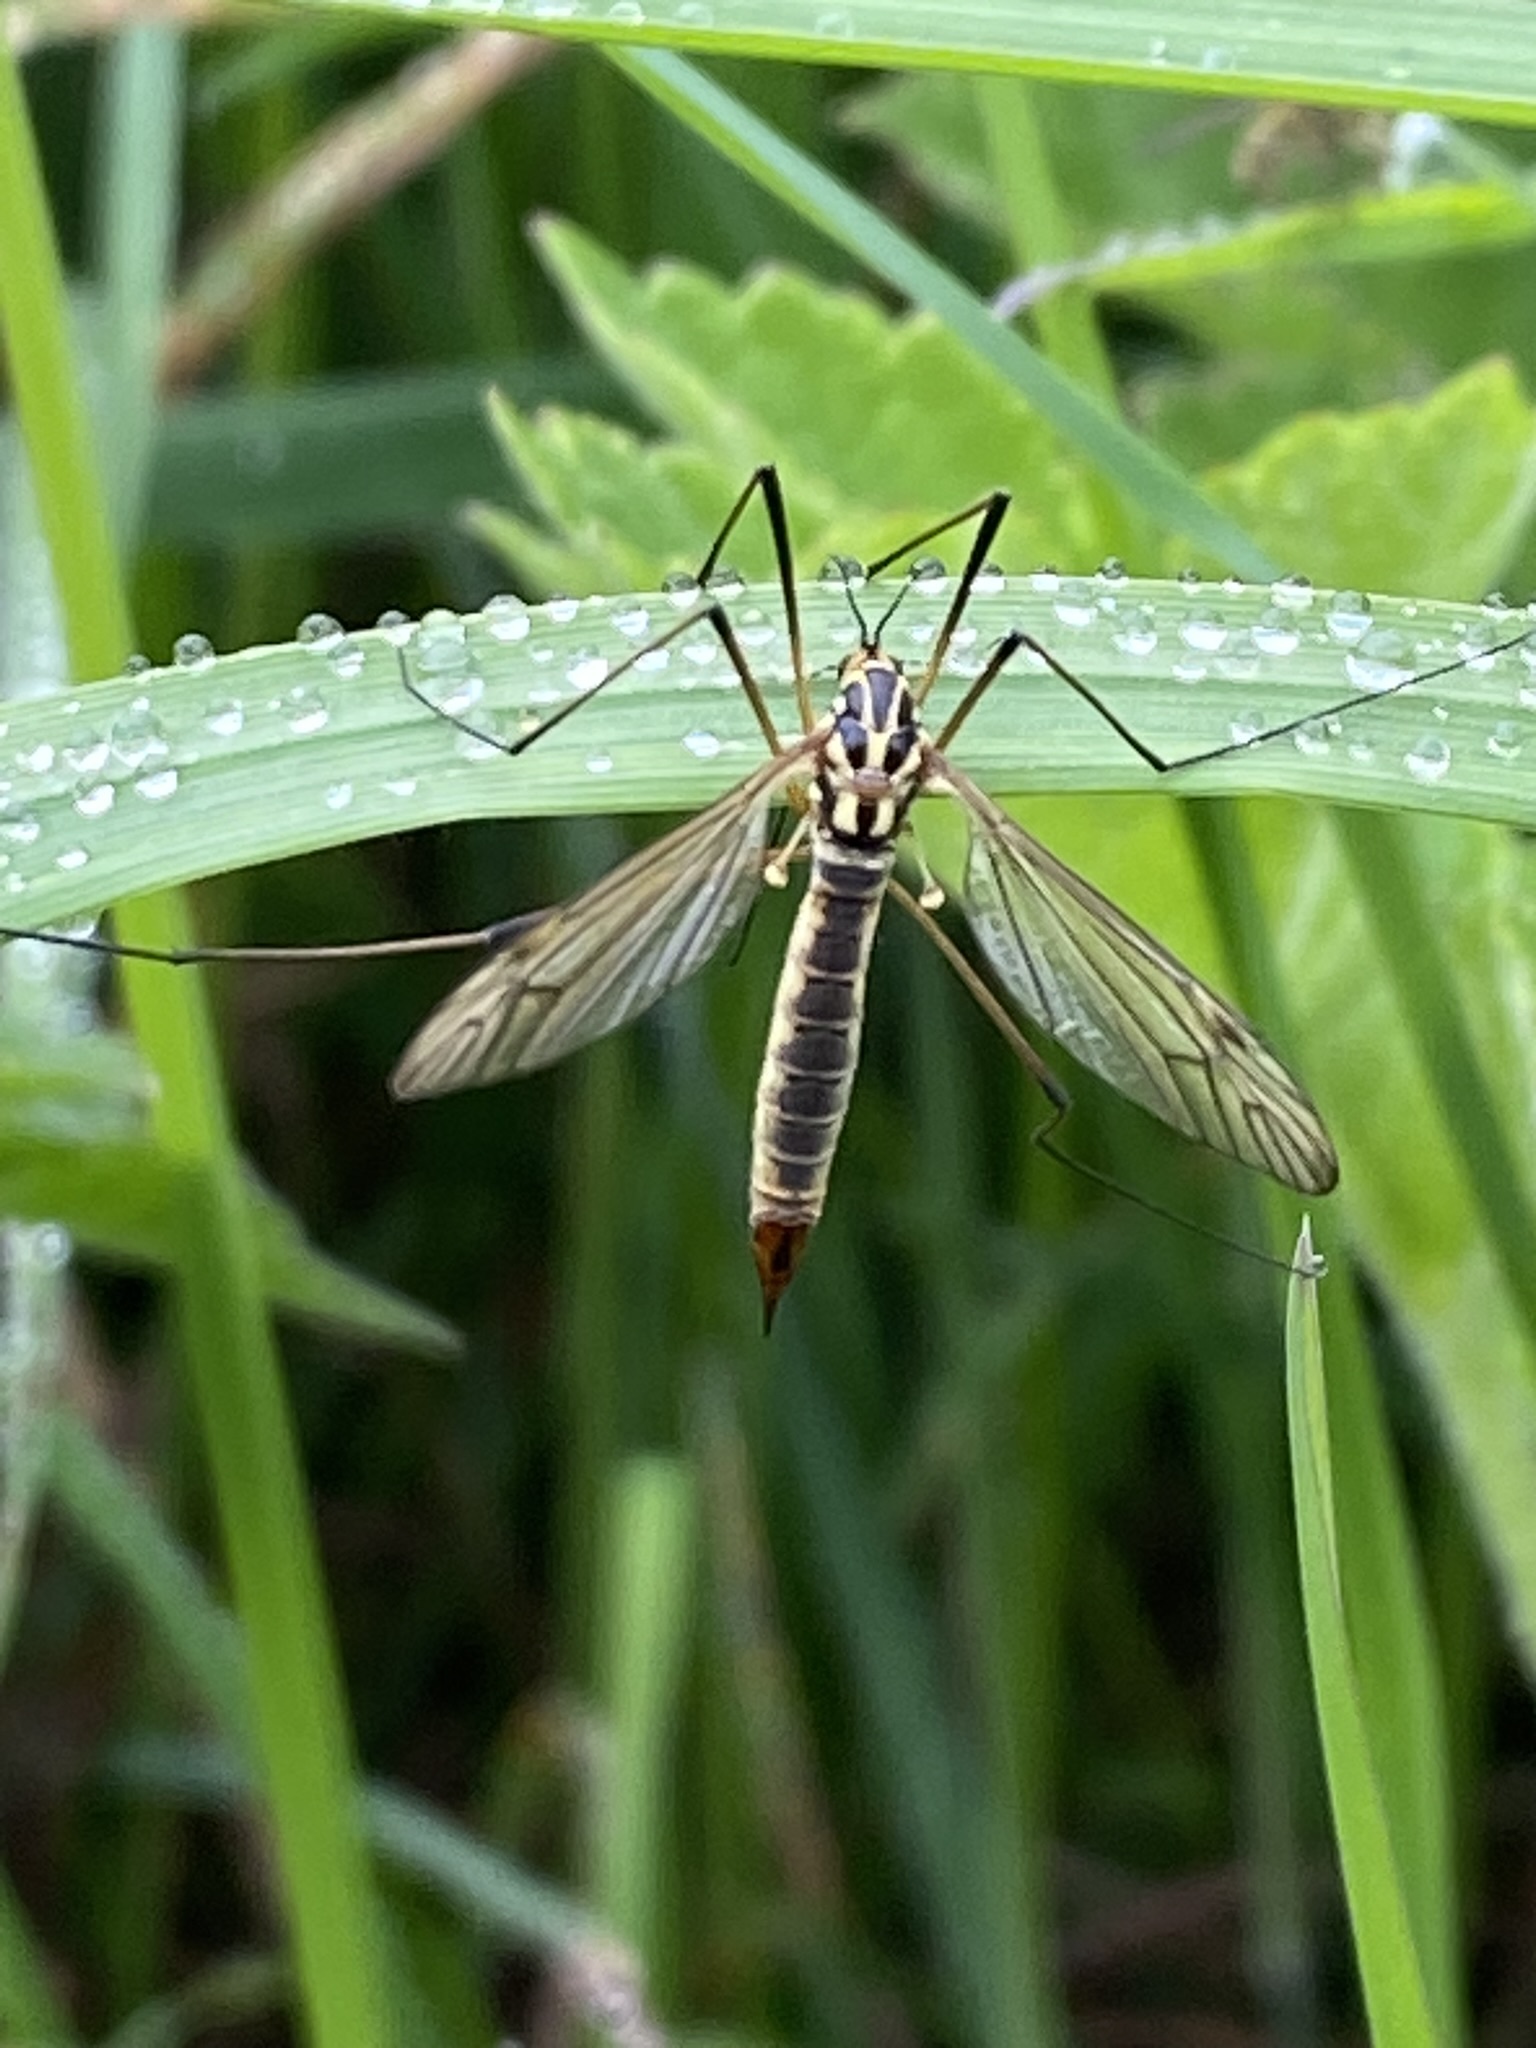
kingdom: Animalia
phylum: Arthropoda
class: Insecta
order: Diptera
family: Tipulidae
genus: Nephrotoma
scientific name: Nephrotoma appendiculata
